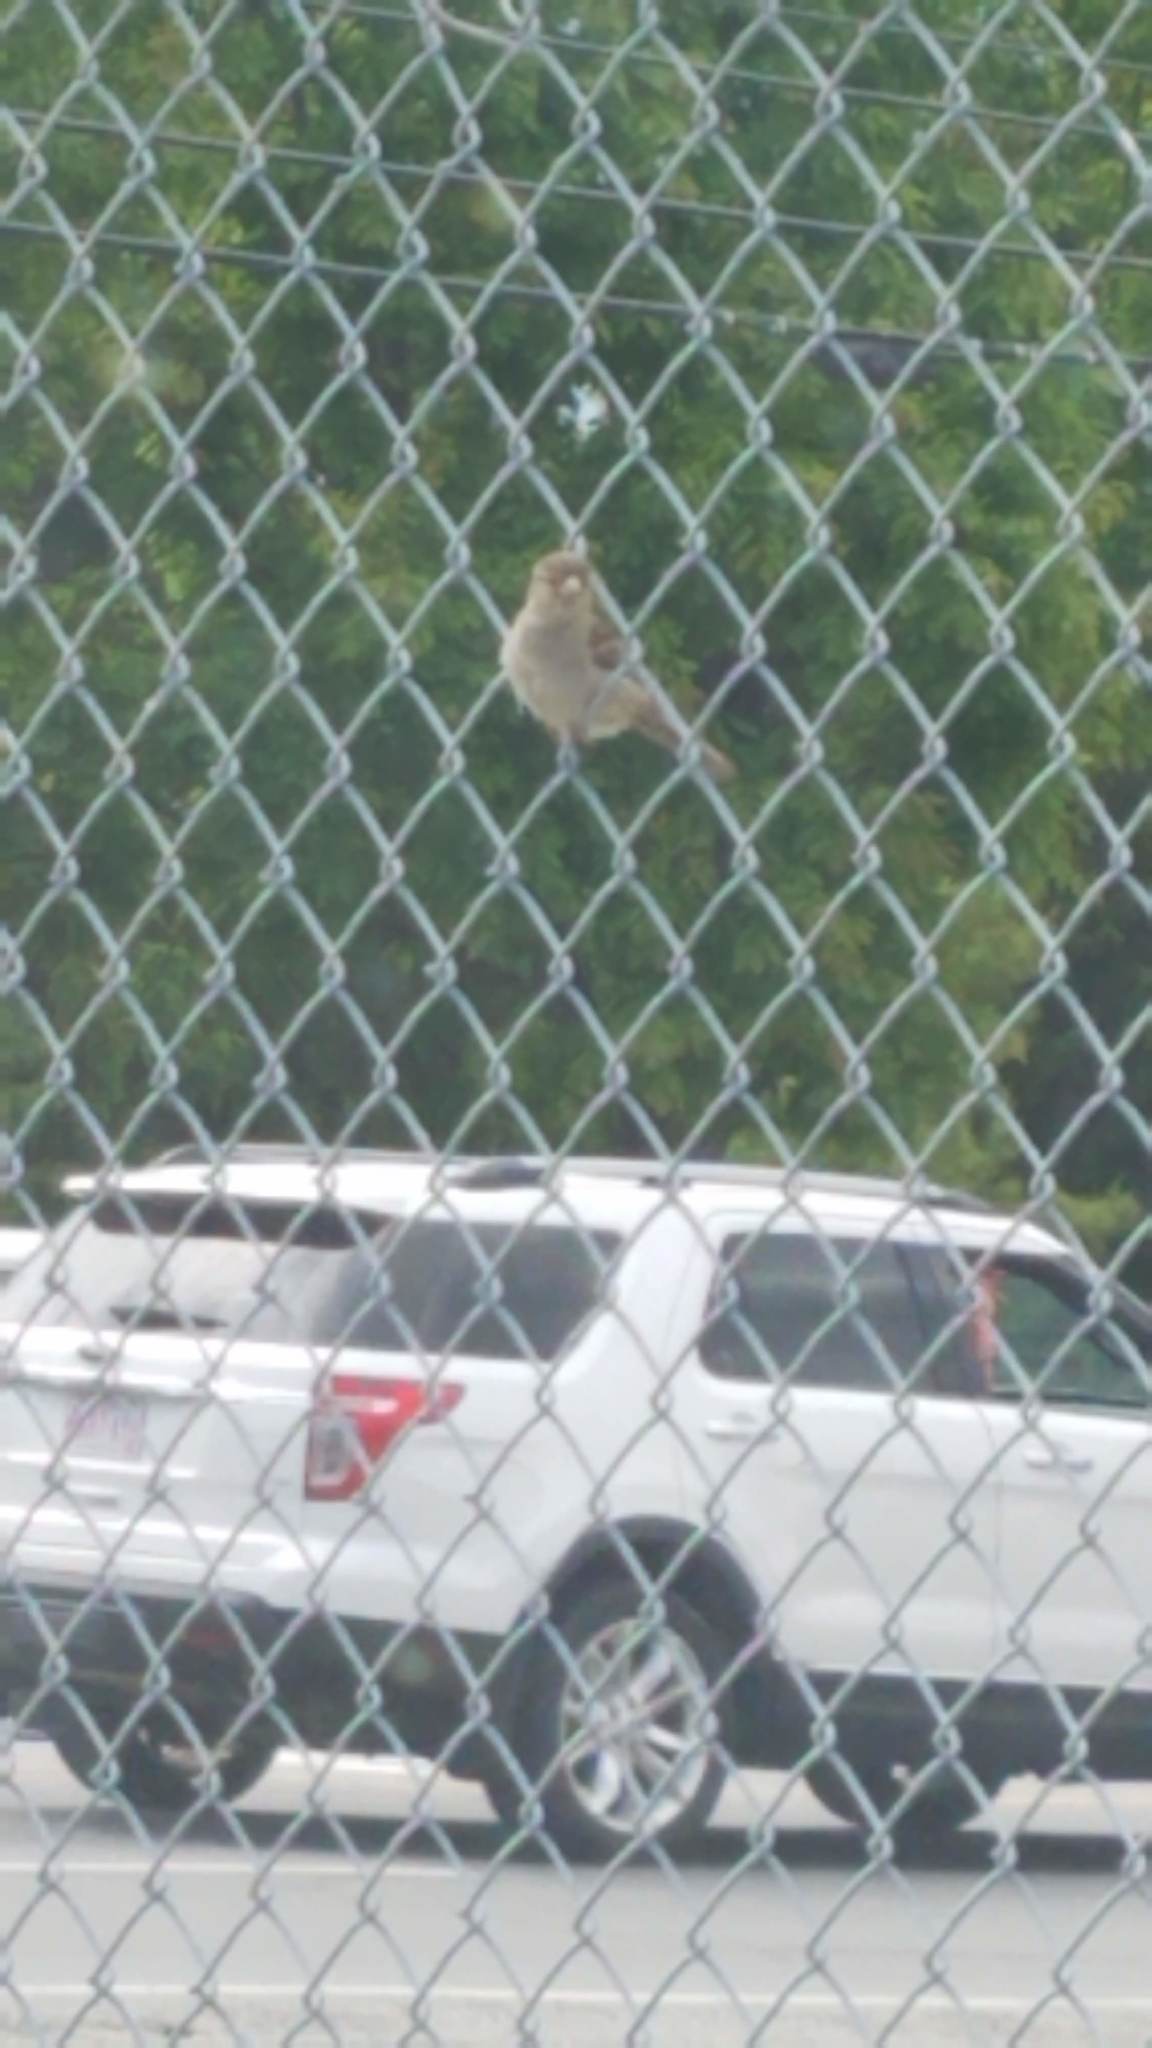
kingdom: Animalia
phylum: Chordata
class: Aves
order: Passeriformes
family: Passeridae
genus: Passer
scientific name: Passer domesticus
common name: House sparrow
